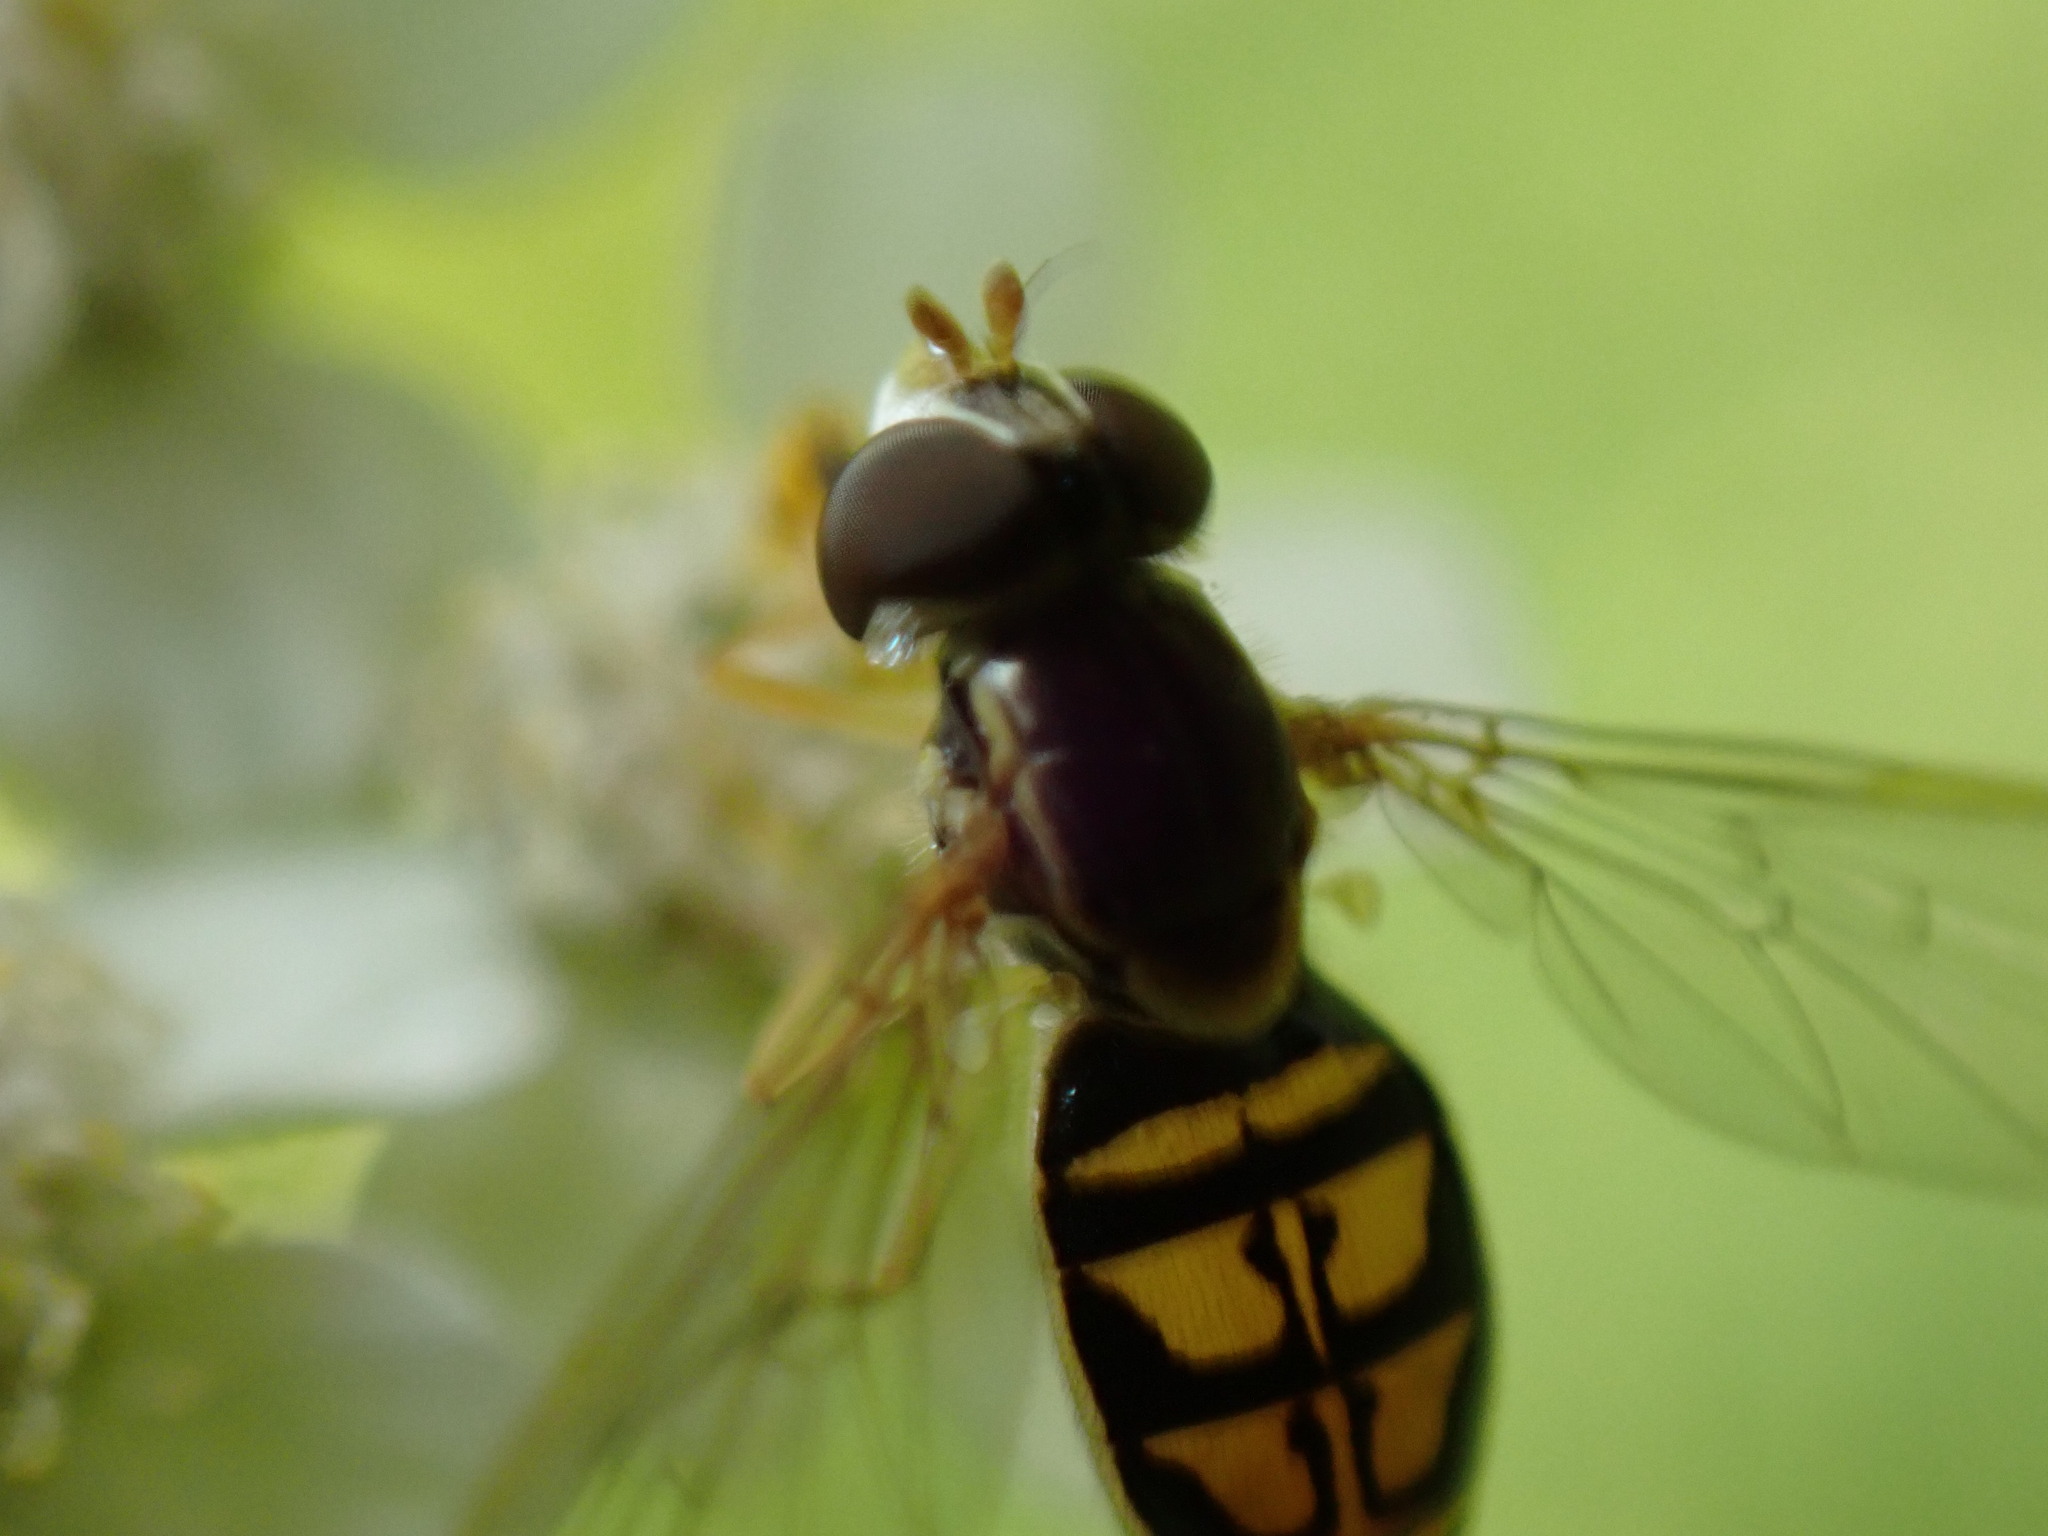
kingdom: Animalia
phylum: Arthropoda
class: Insecta
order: Diptera
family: Syrphidae
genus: Toxomerus
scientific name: Toxomerus marginatus
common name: Syrphid fly
